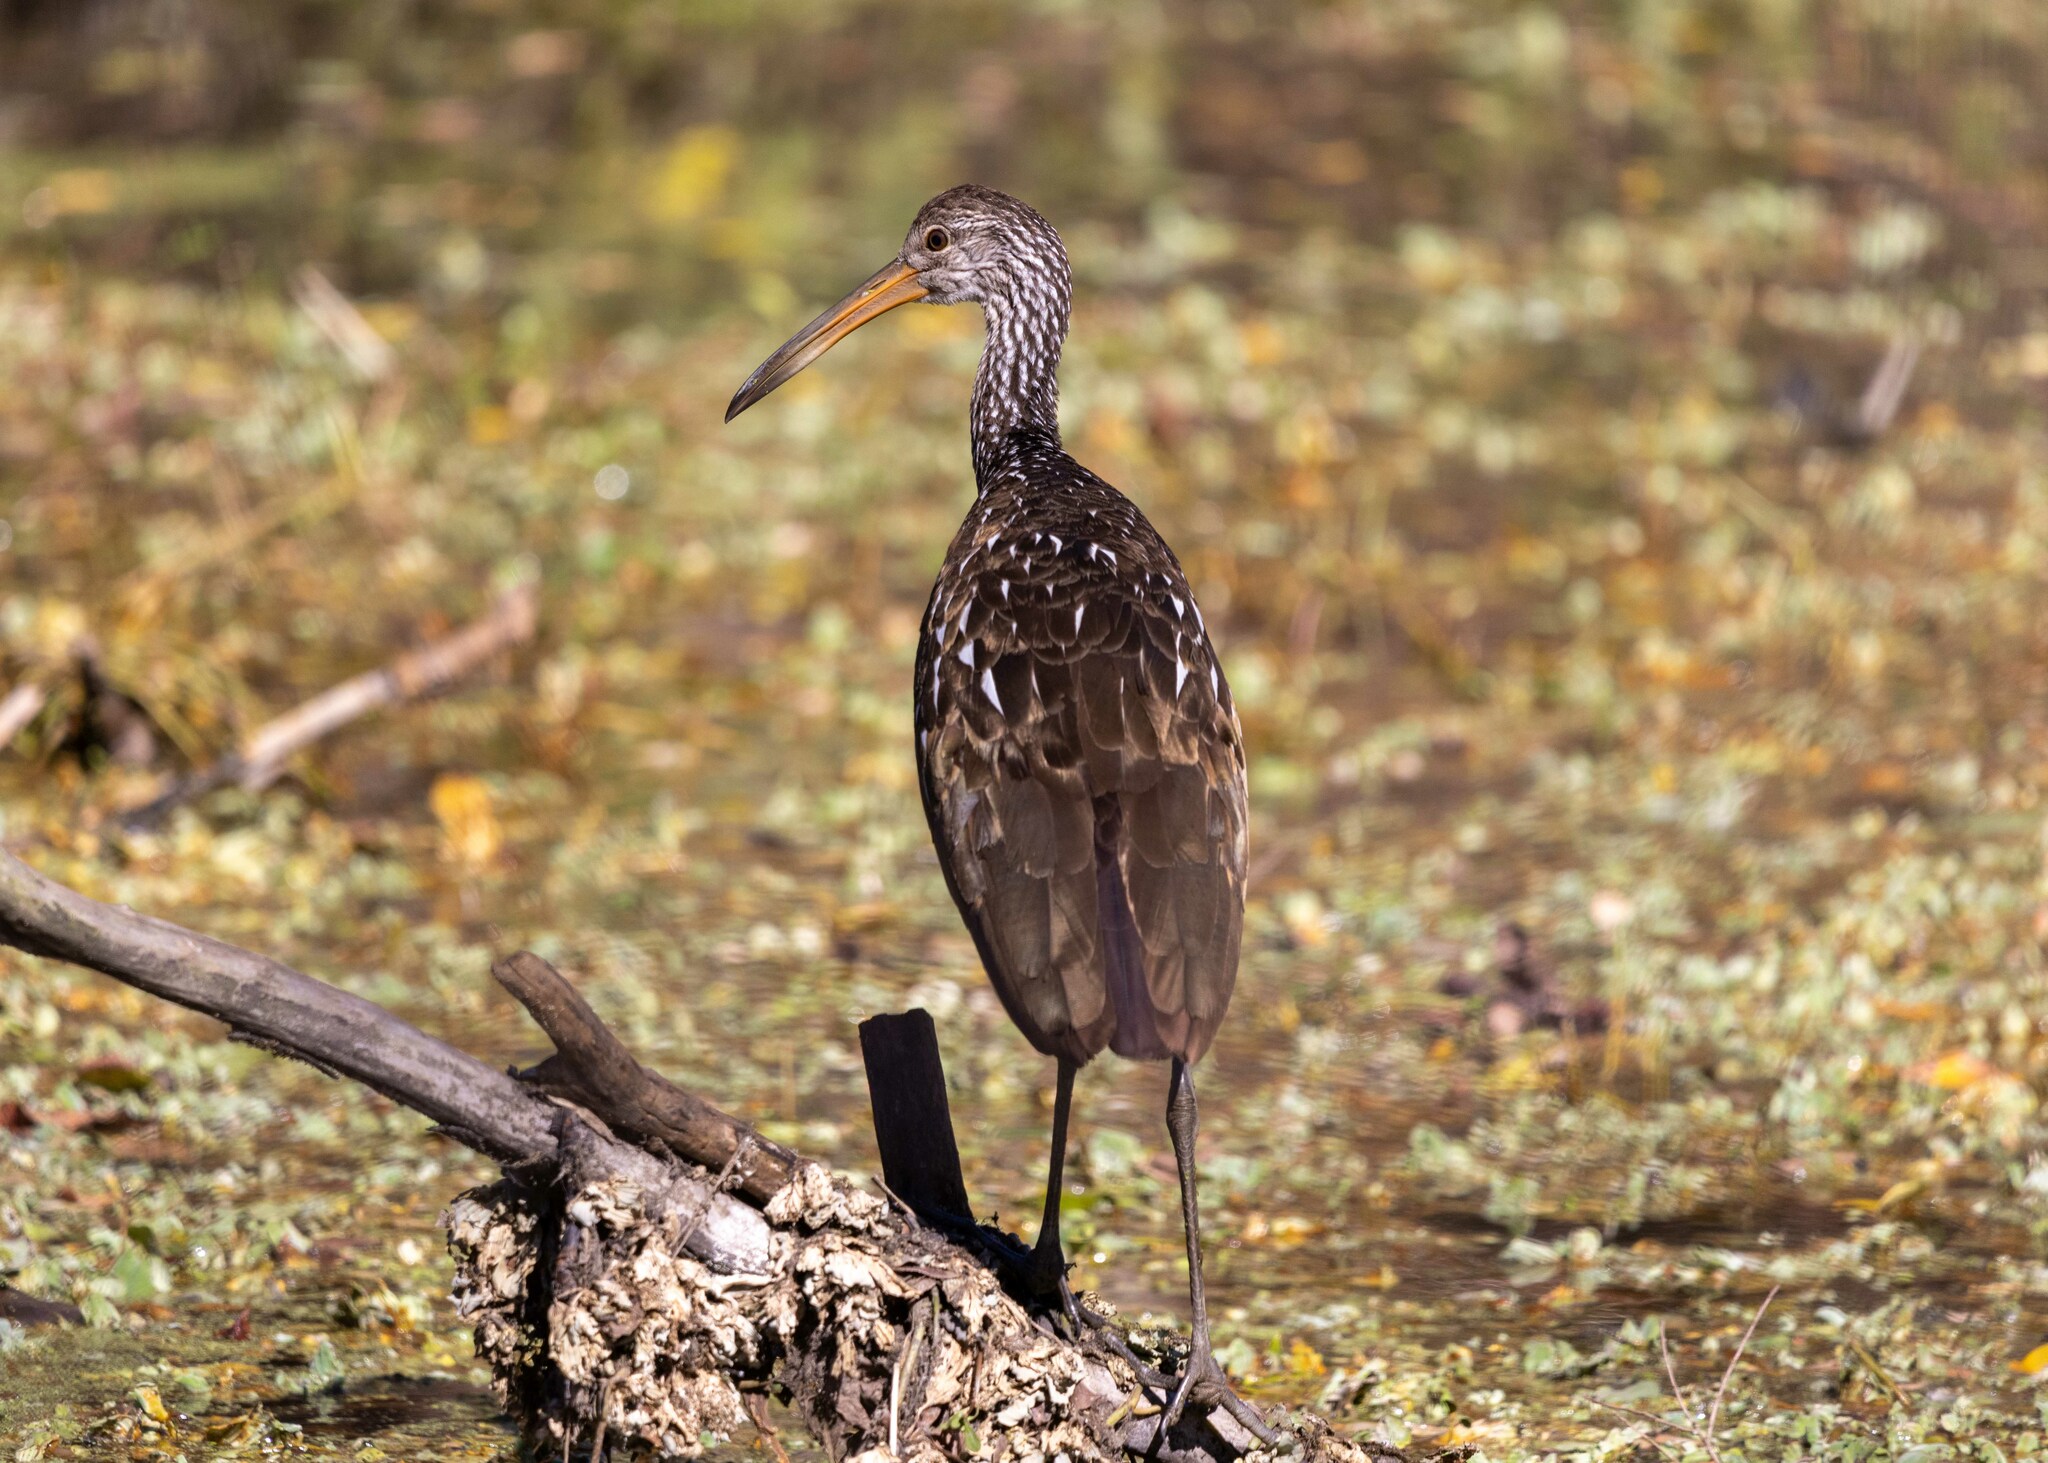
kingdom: Animalia
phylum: Chordata
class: Aves
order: Gruiformes
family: Aramidae
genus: Aramus
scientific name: Aramus guarauna
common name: Limpkin
